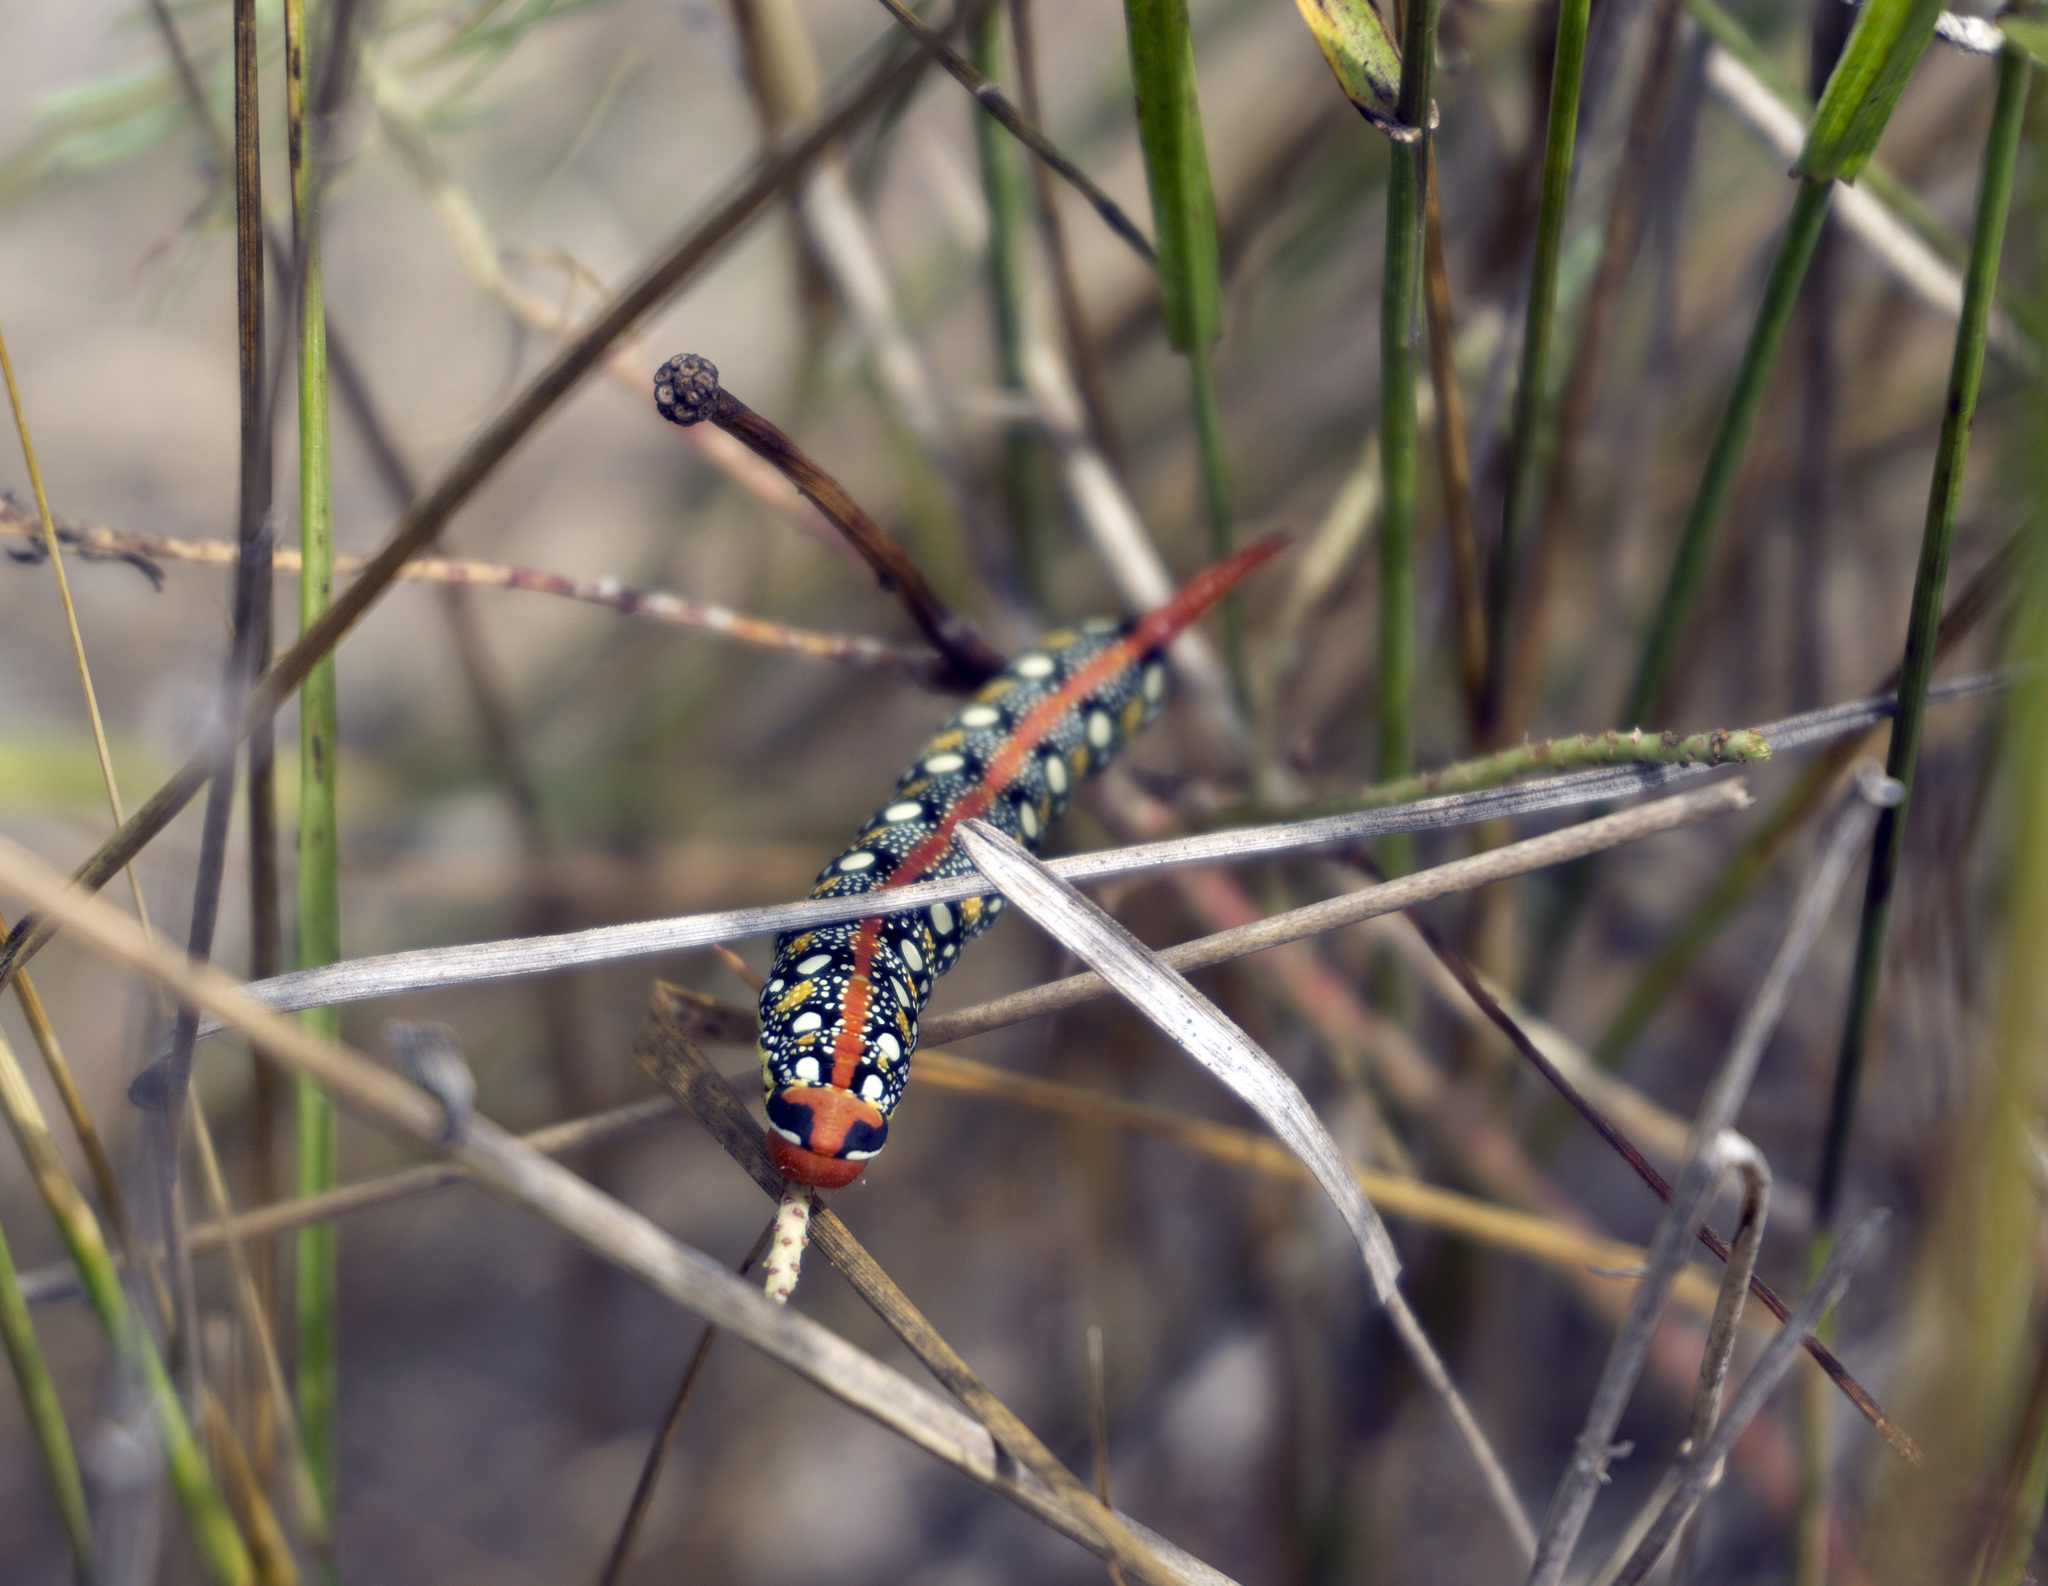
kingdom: Animalia
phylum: Arthropoda
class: Insecta
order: Lepidoptera
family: Sphingidae
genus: Hyles
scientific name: Hyles euphorbiae
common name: Spurge hawk-moth
